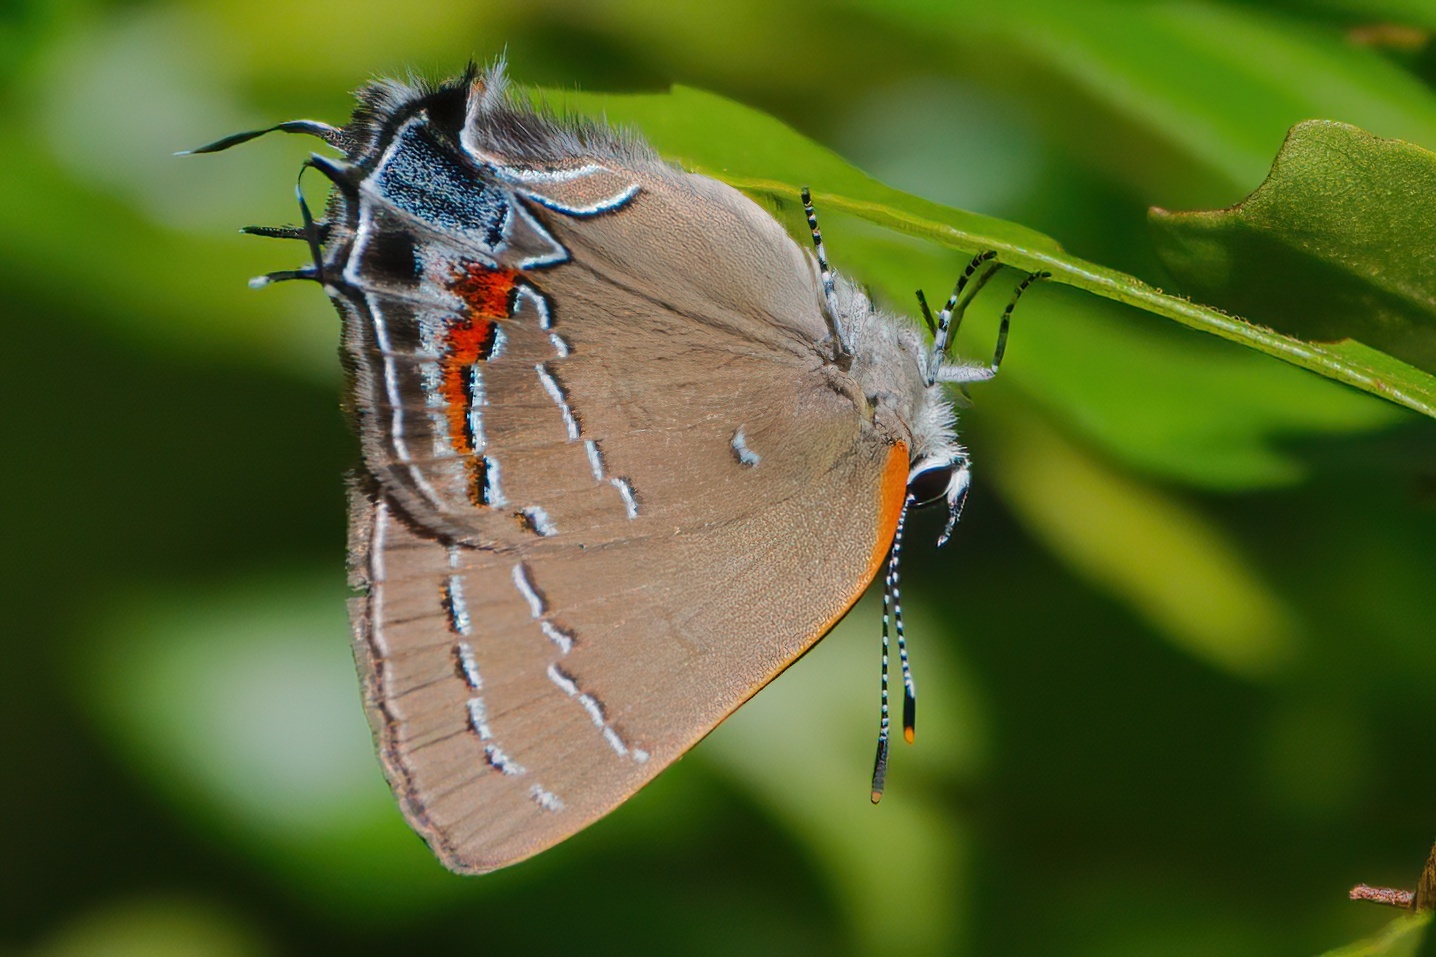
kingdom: Animalia
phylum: Arthropoda
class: Insecta
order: Lepidoptera
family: Lycaenidae
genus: Fixsenia
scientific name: Fixsenia favonius
